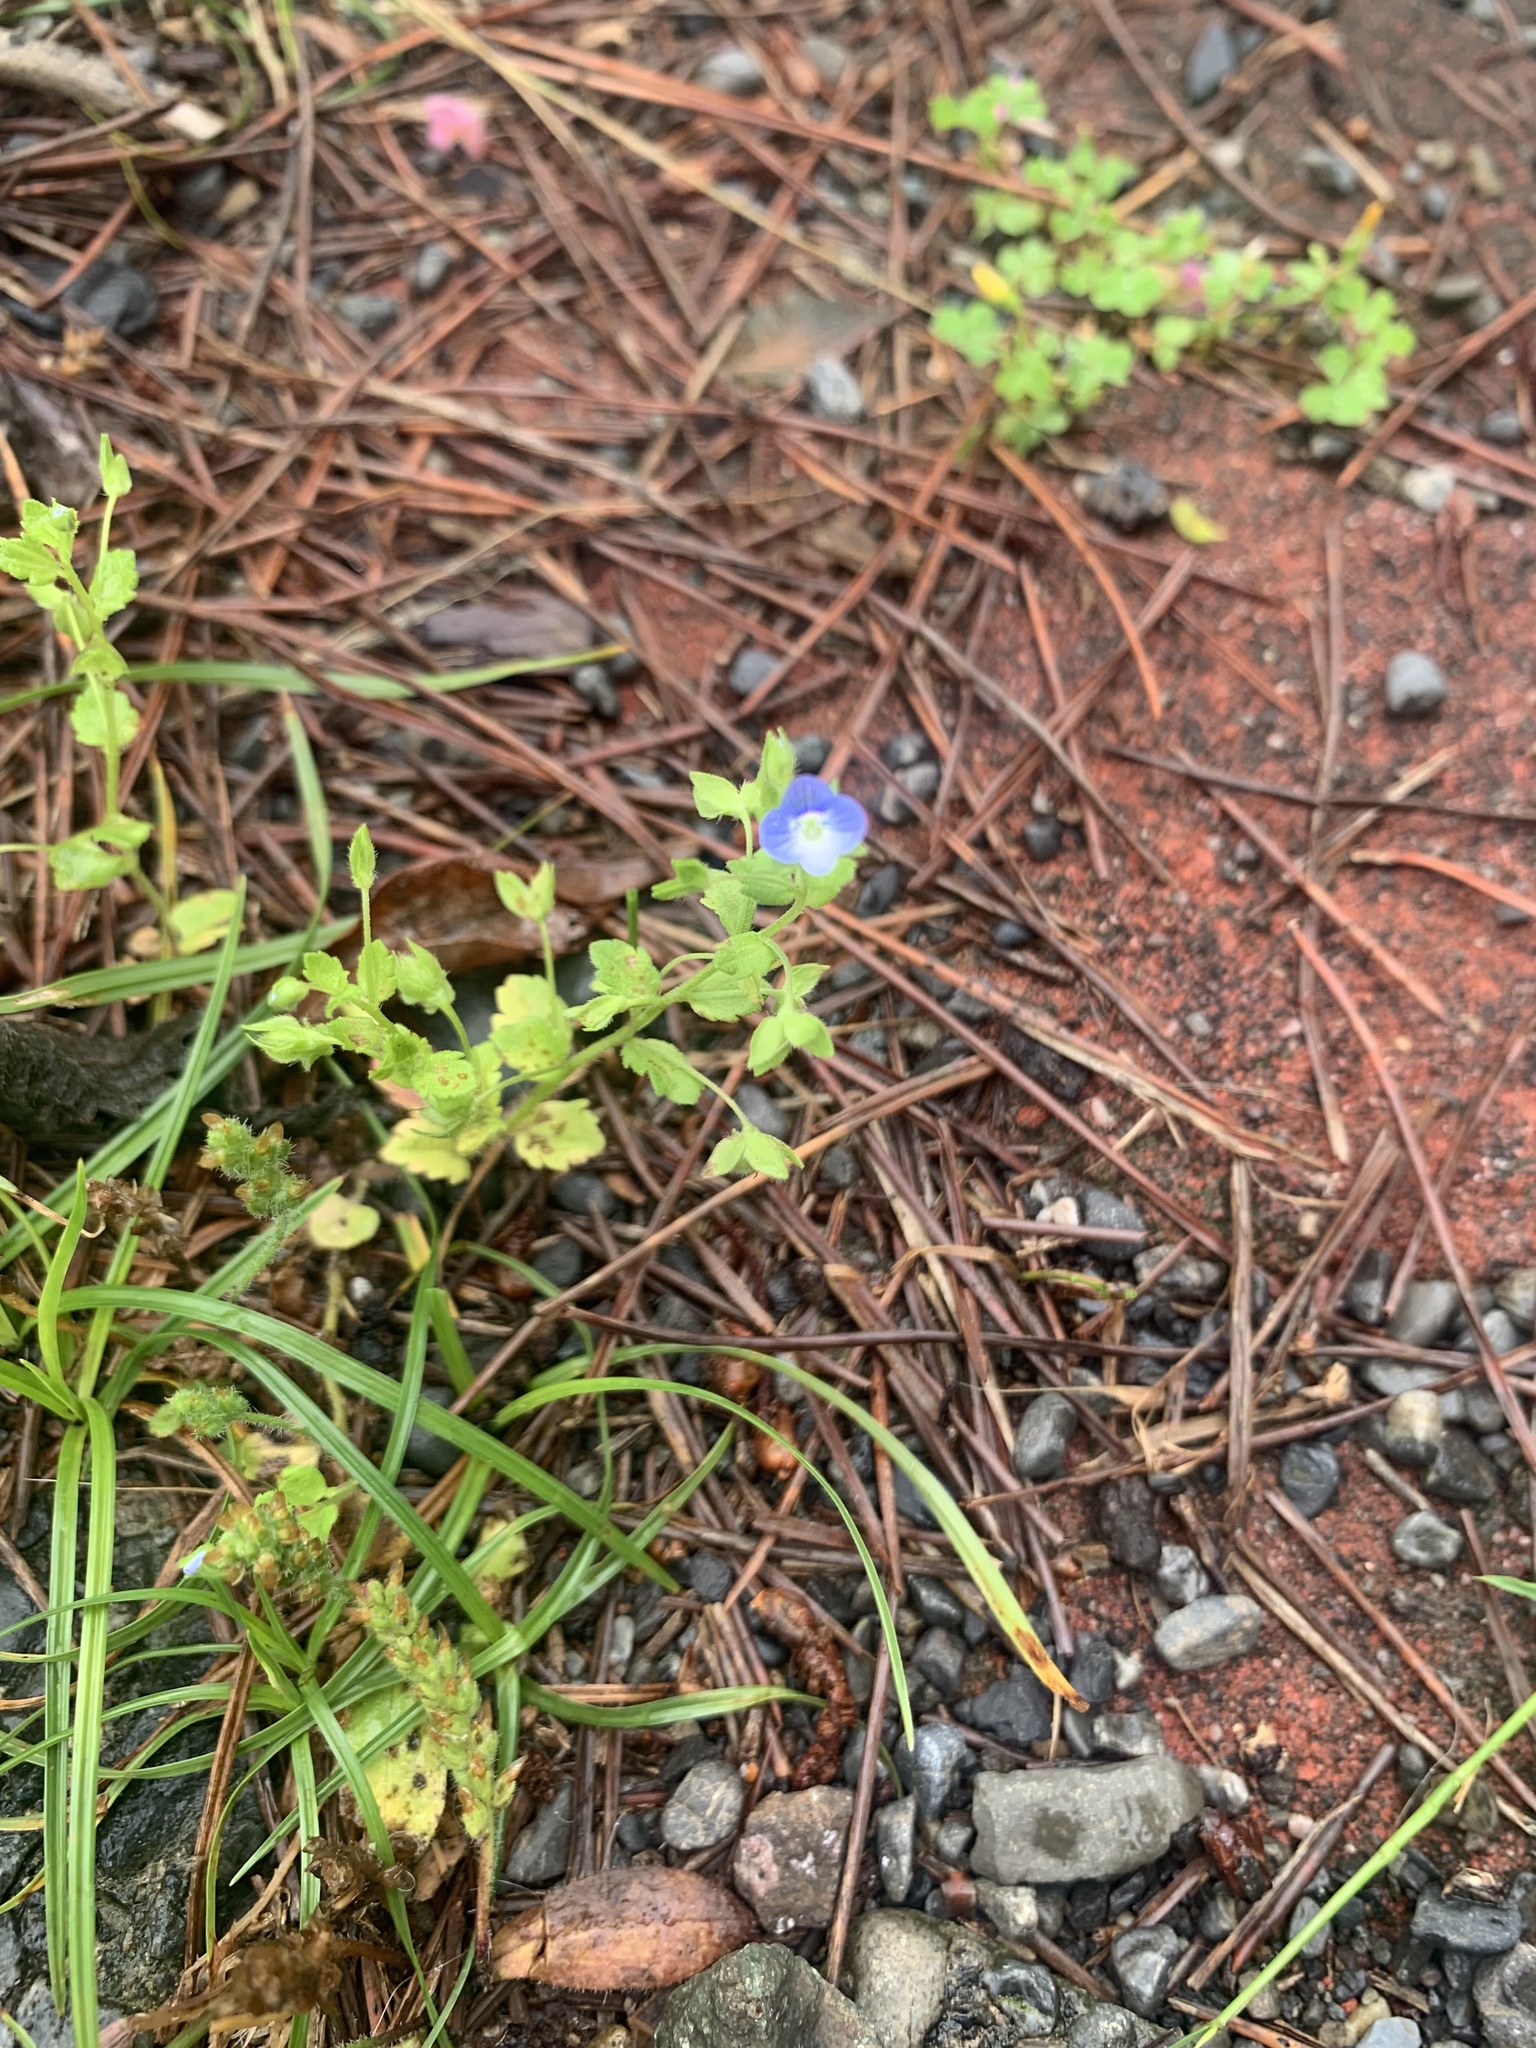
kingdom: Plantae
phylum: Tracheophyta
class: Magnoliopsida
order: Lamiales
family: Plantaginaceae
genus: Veronica
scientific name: Veronica persica
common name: Common field-speedwell
